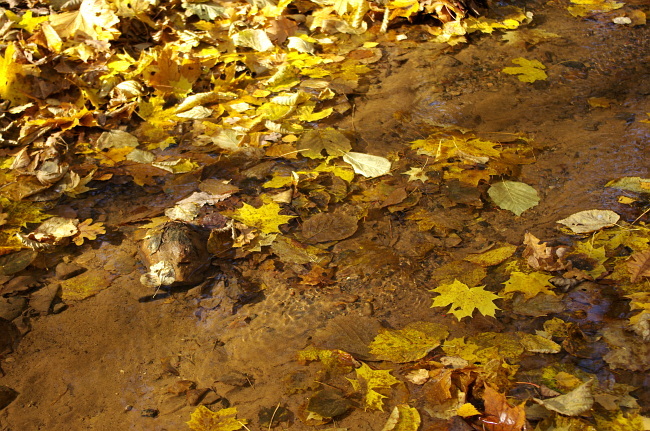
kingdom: Plantae
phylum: Tracheophyta
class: Magnoliopsida
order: Sapindales
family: Sapindaceae
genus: Acer
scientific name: Acer platanoides
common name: Norway maple
